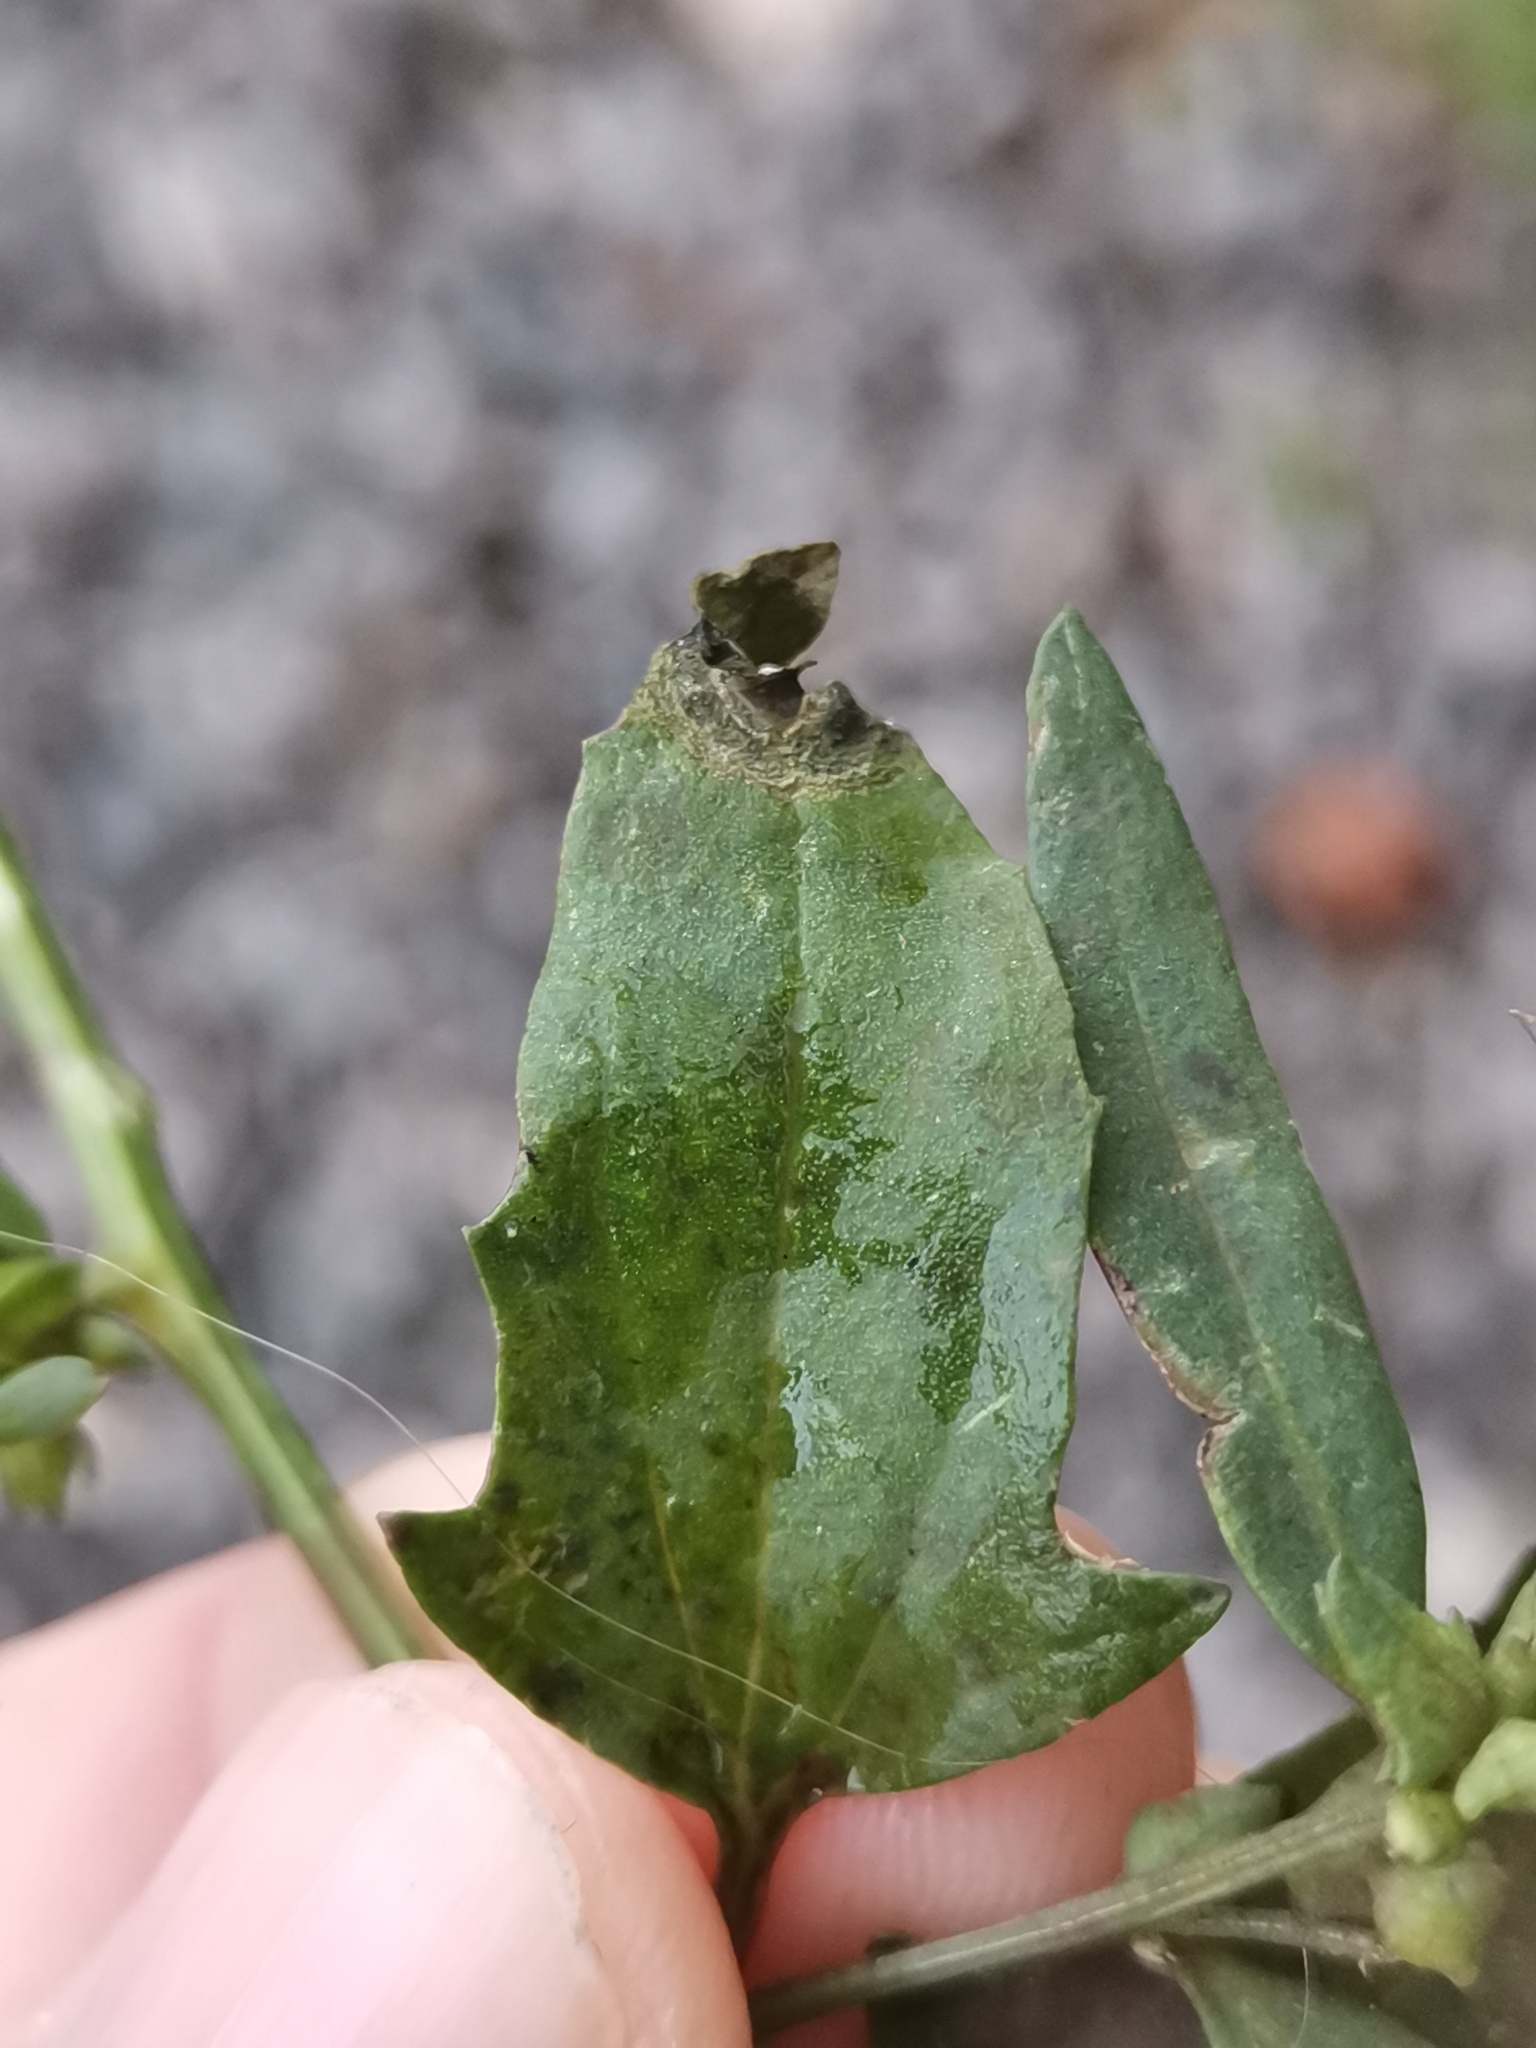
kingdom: Plantae
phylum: Tracheophyta
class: Magnoliopsida
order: Caryophyllales
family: Amaranthaceae
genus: Atriplex
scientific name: Atriplex patula
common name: Common orache
